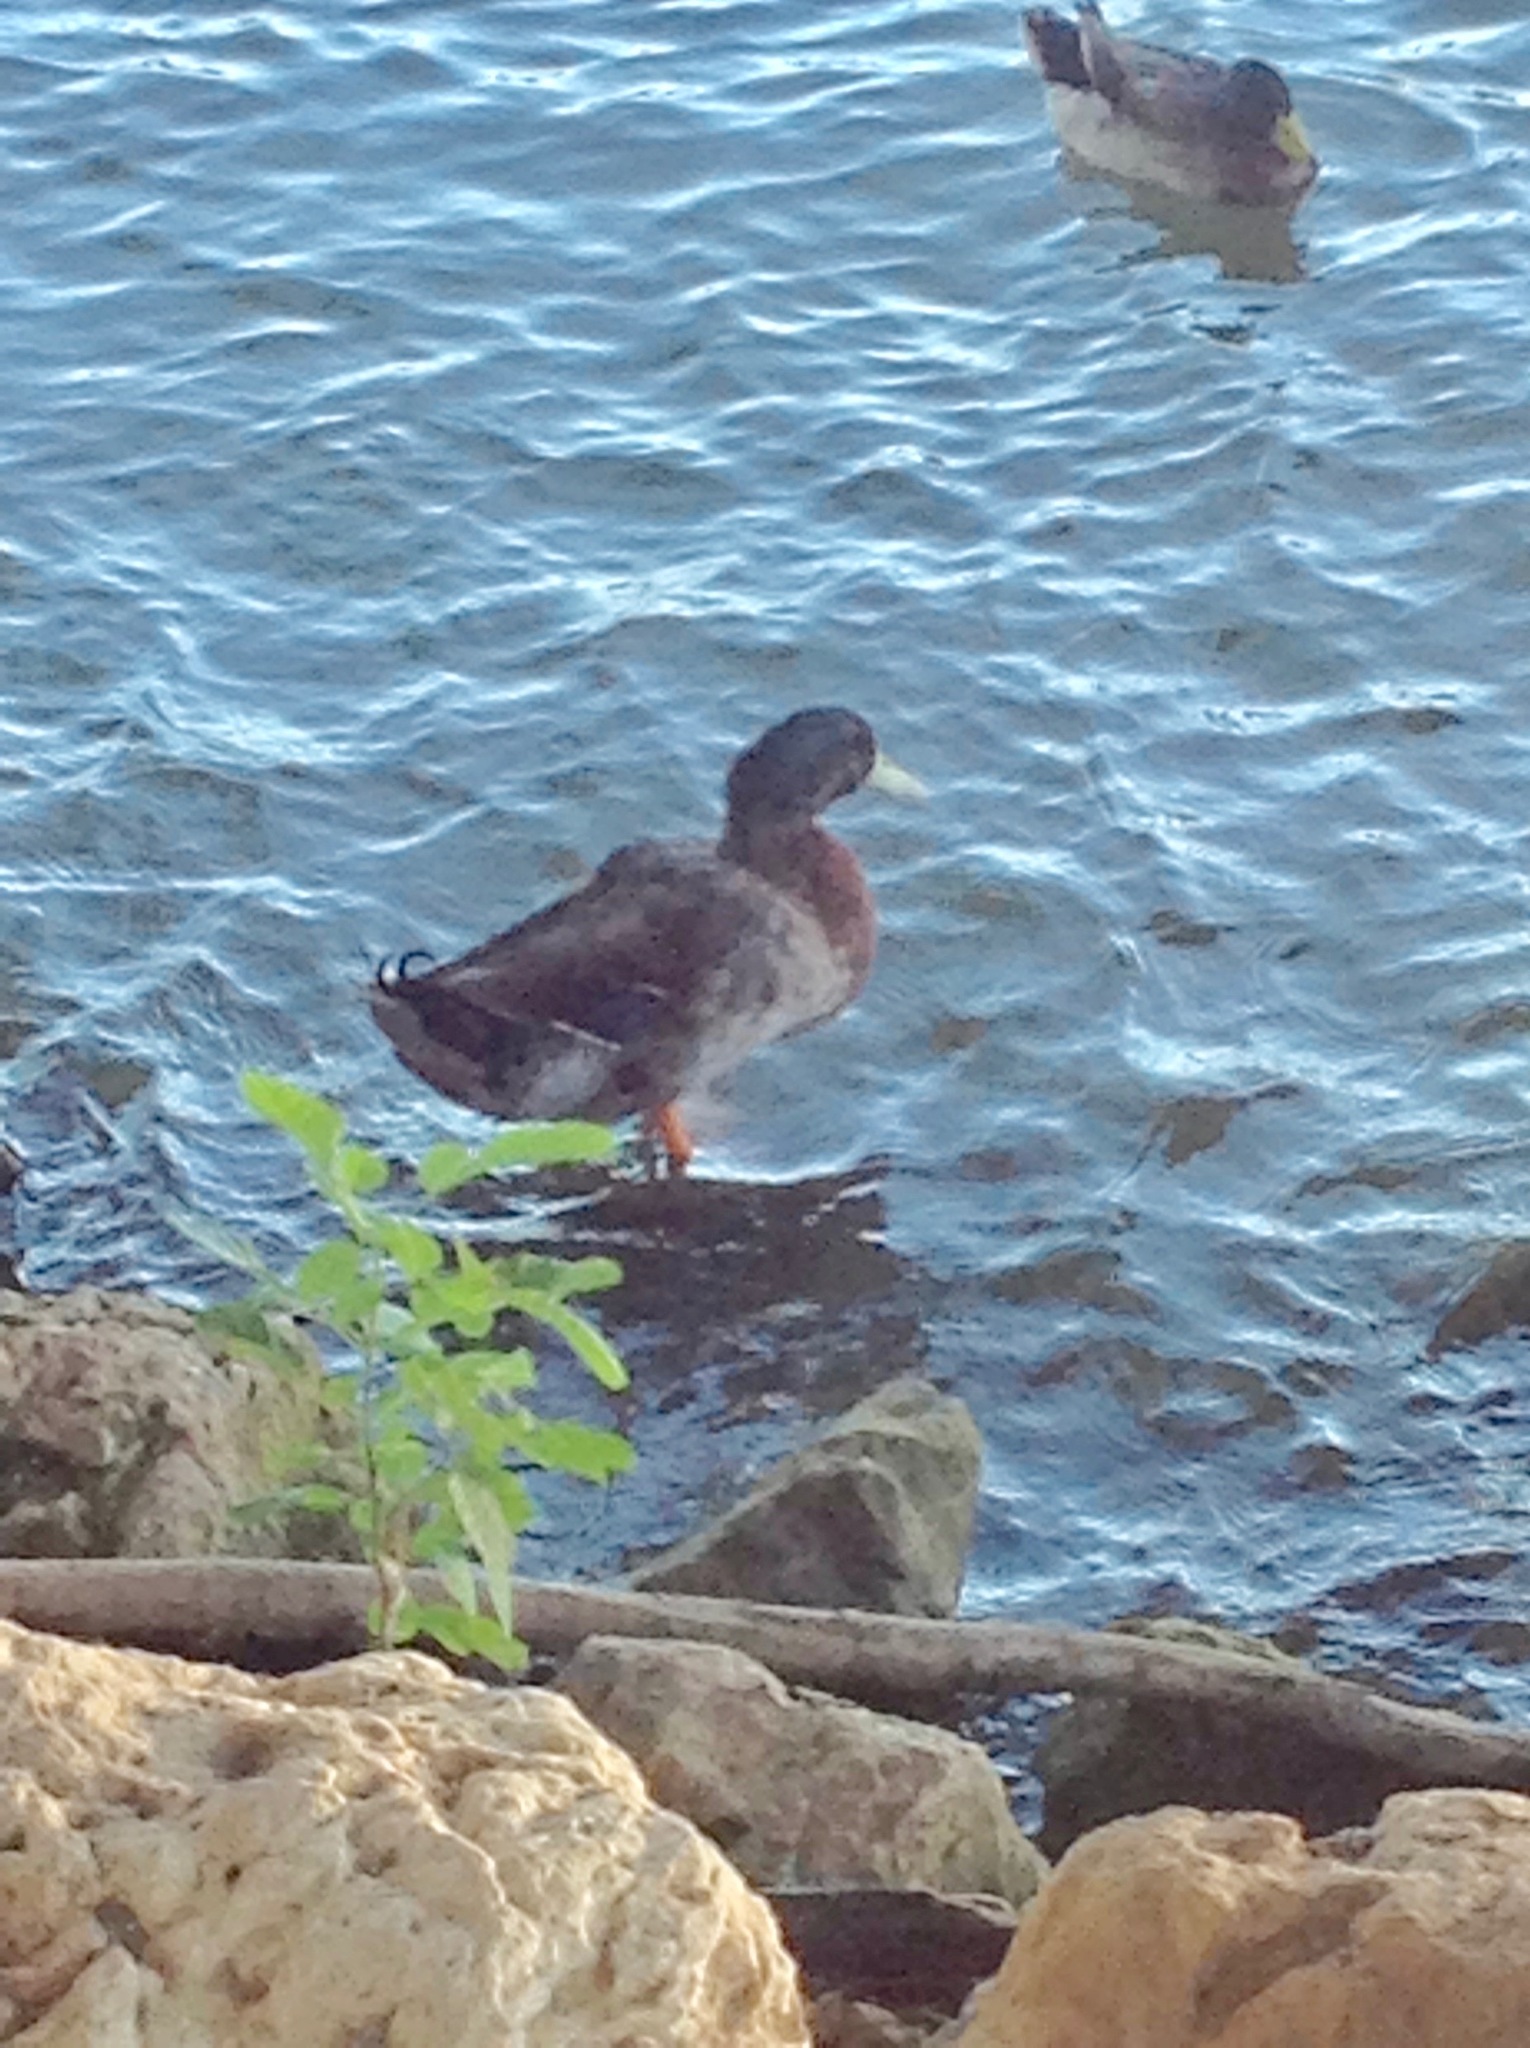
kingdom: Animalia
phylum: Chordata
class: Aves
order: Anseriformes
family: Anatidae
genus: Anas
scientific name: Anas platyrhynchos
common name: Mallard
